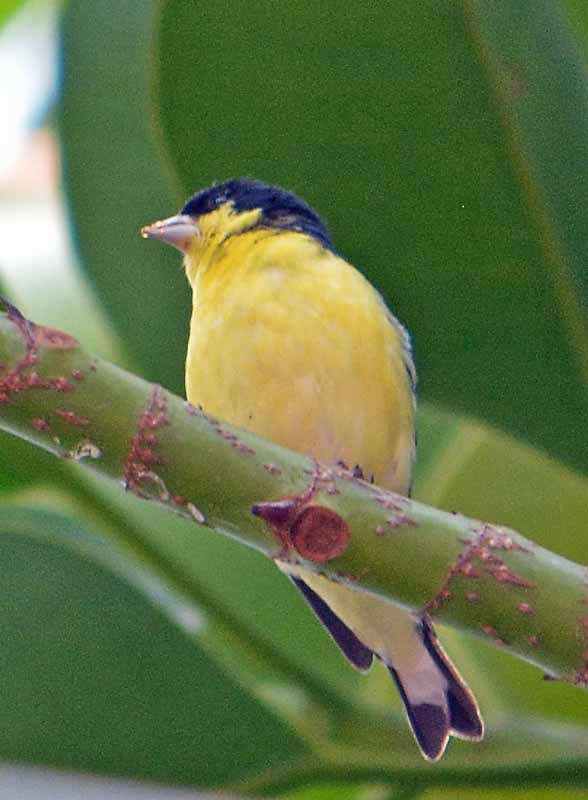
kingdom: Animalia
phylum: Chordata
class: Aves
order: Passeriformes
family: Fringillidae
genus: Spinus
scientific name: Spinus psaltria
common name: Lesser goldfinch
